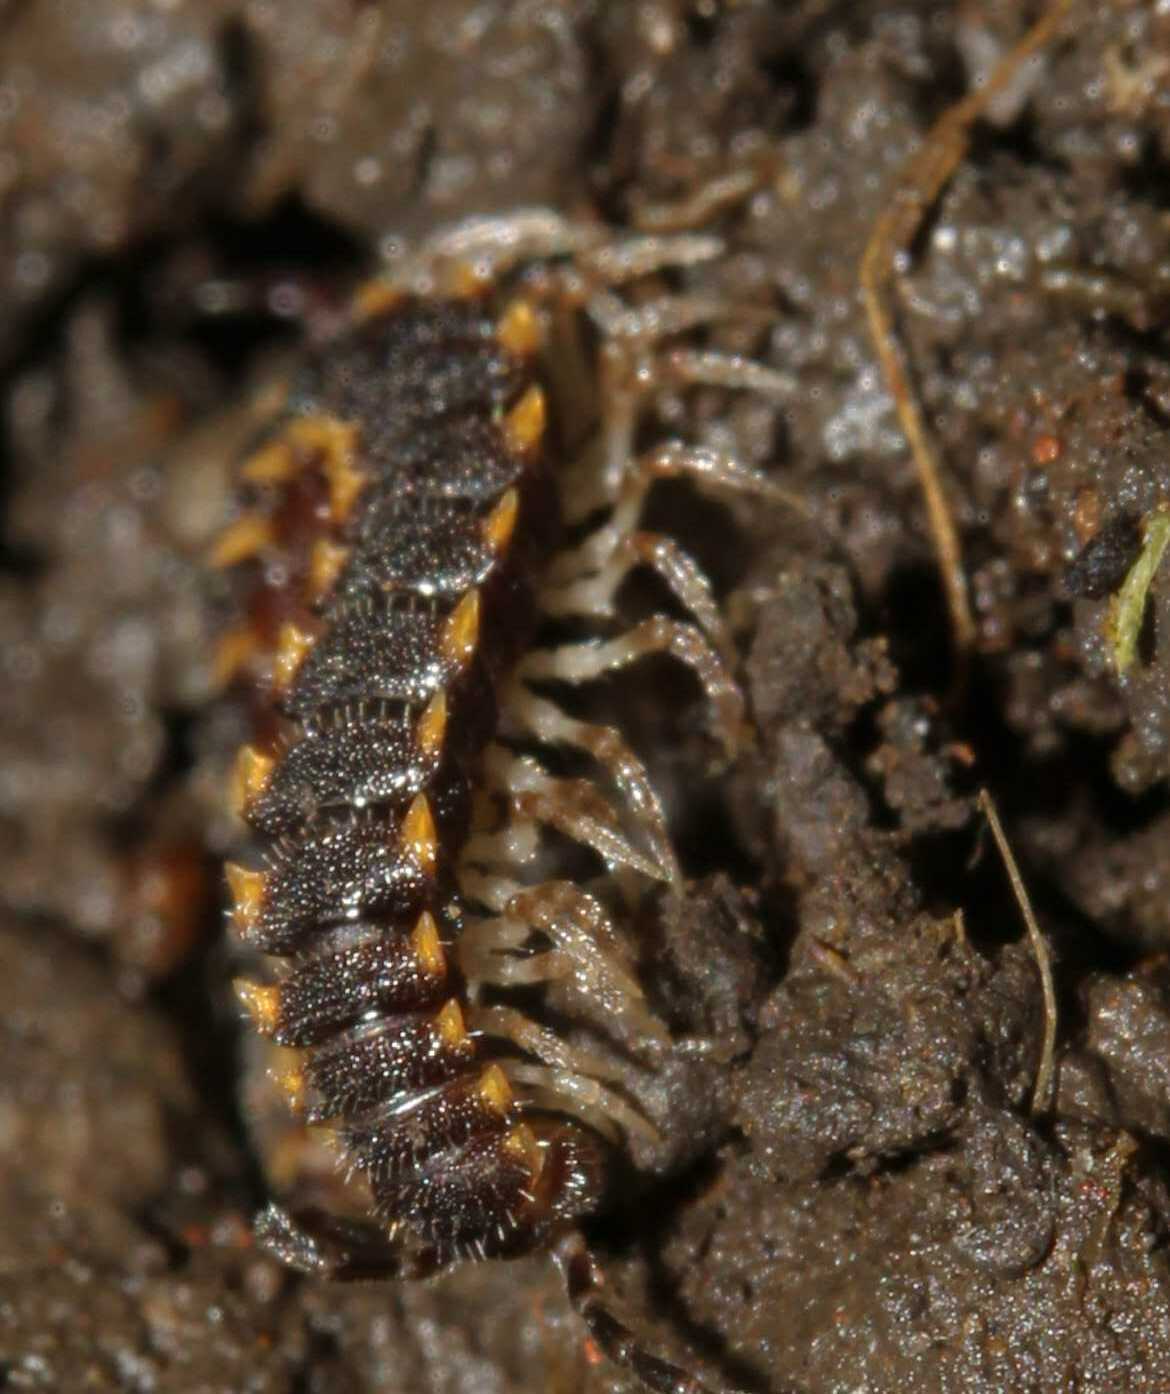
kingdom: Animalia
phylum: Arthropoda
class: Diplopoda
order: Polydesmida
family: Paradoxosomatidae
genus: Chondromorpha
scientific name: Chondromorpha xanthotricha
